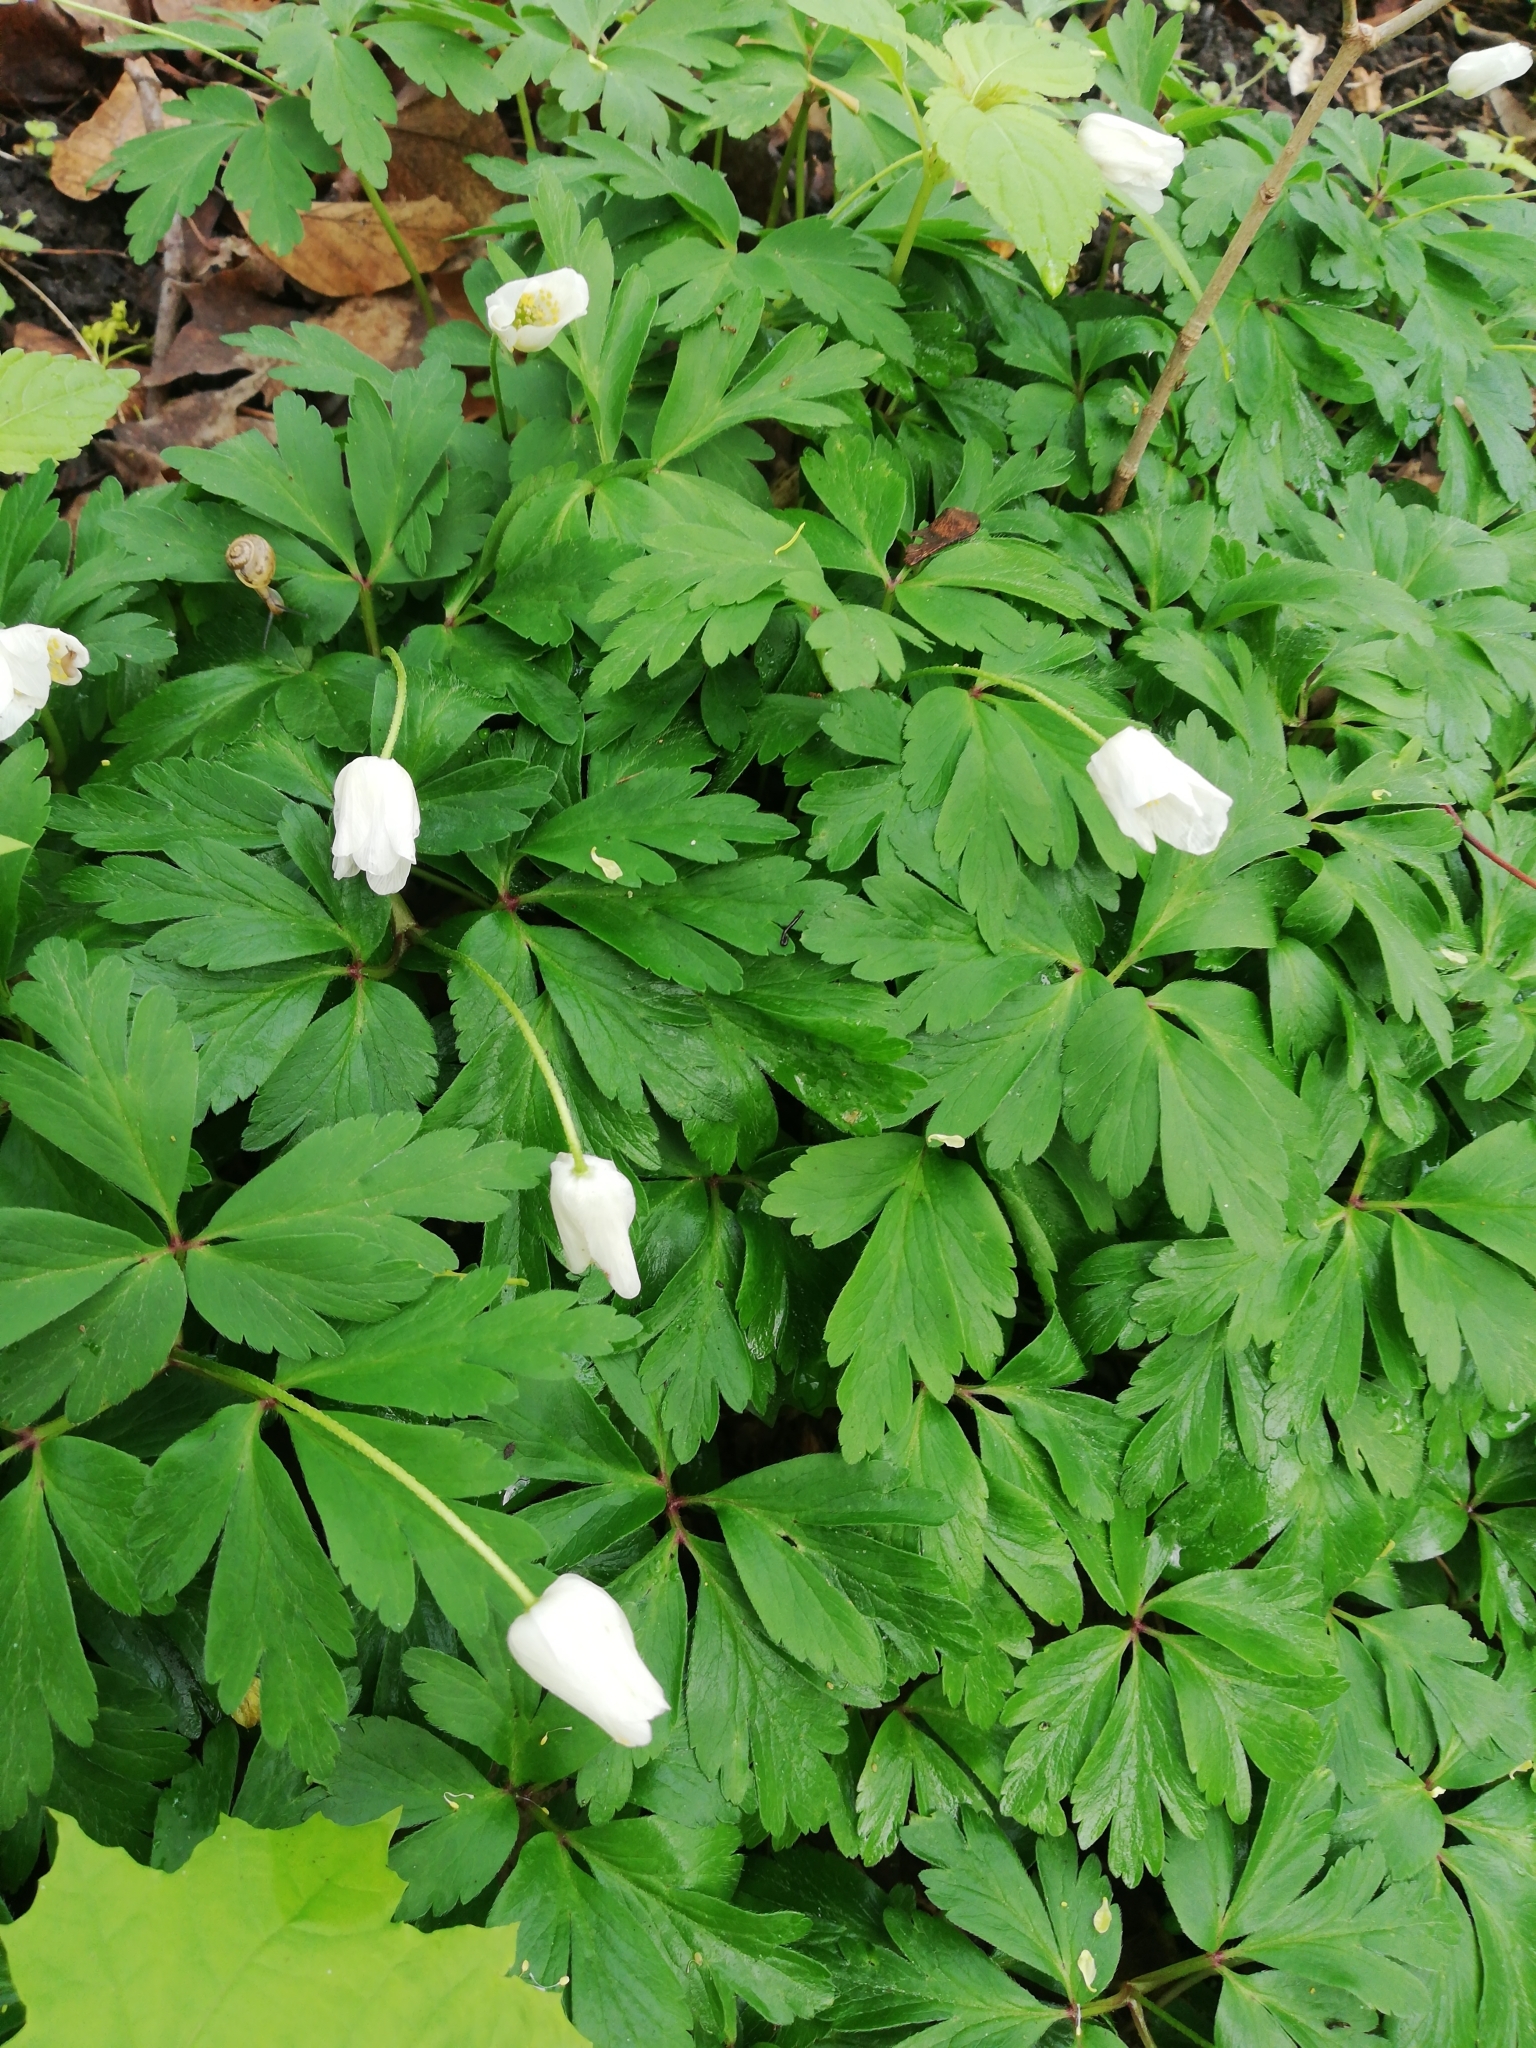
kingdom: Plantae
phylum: Tracheophyta
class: Magnoliopsida
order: Ranunculales
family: Ranunculaceae
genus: Anemone
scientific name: Anemone nemorosa
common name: Wood anemone
